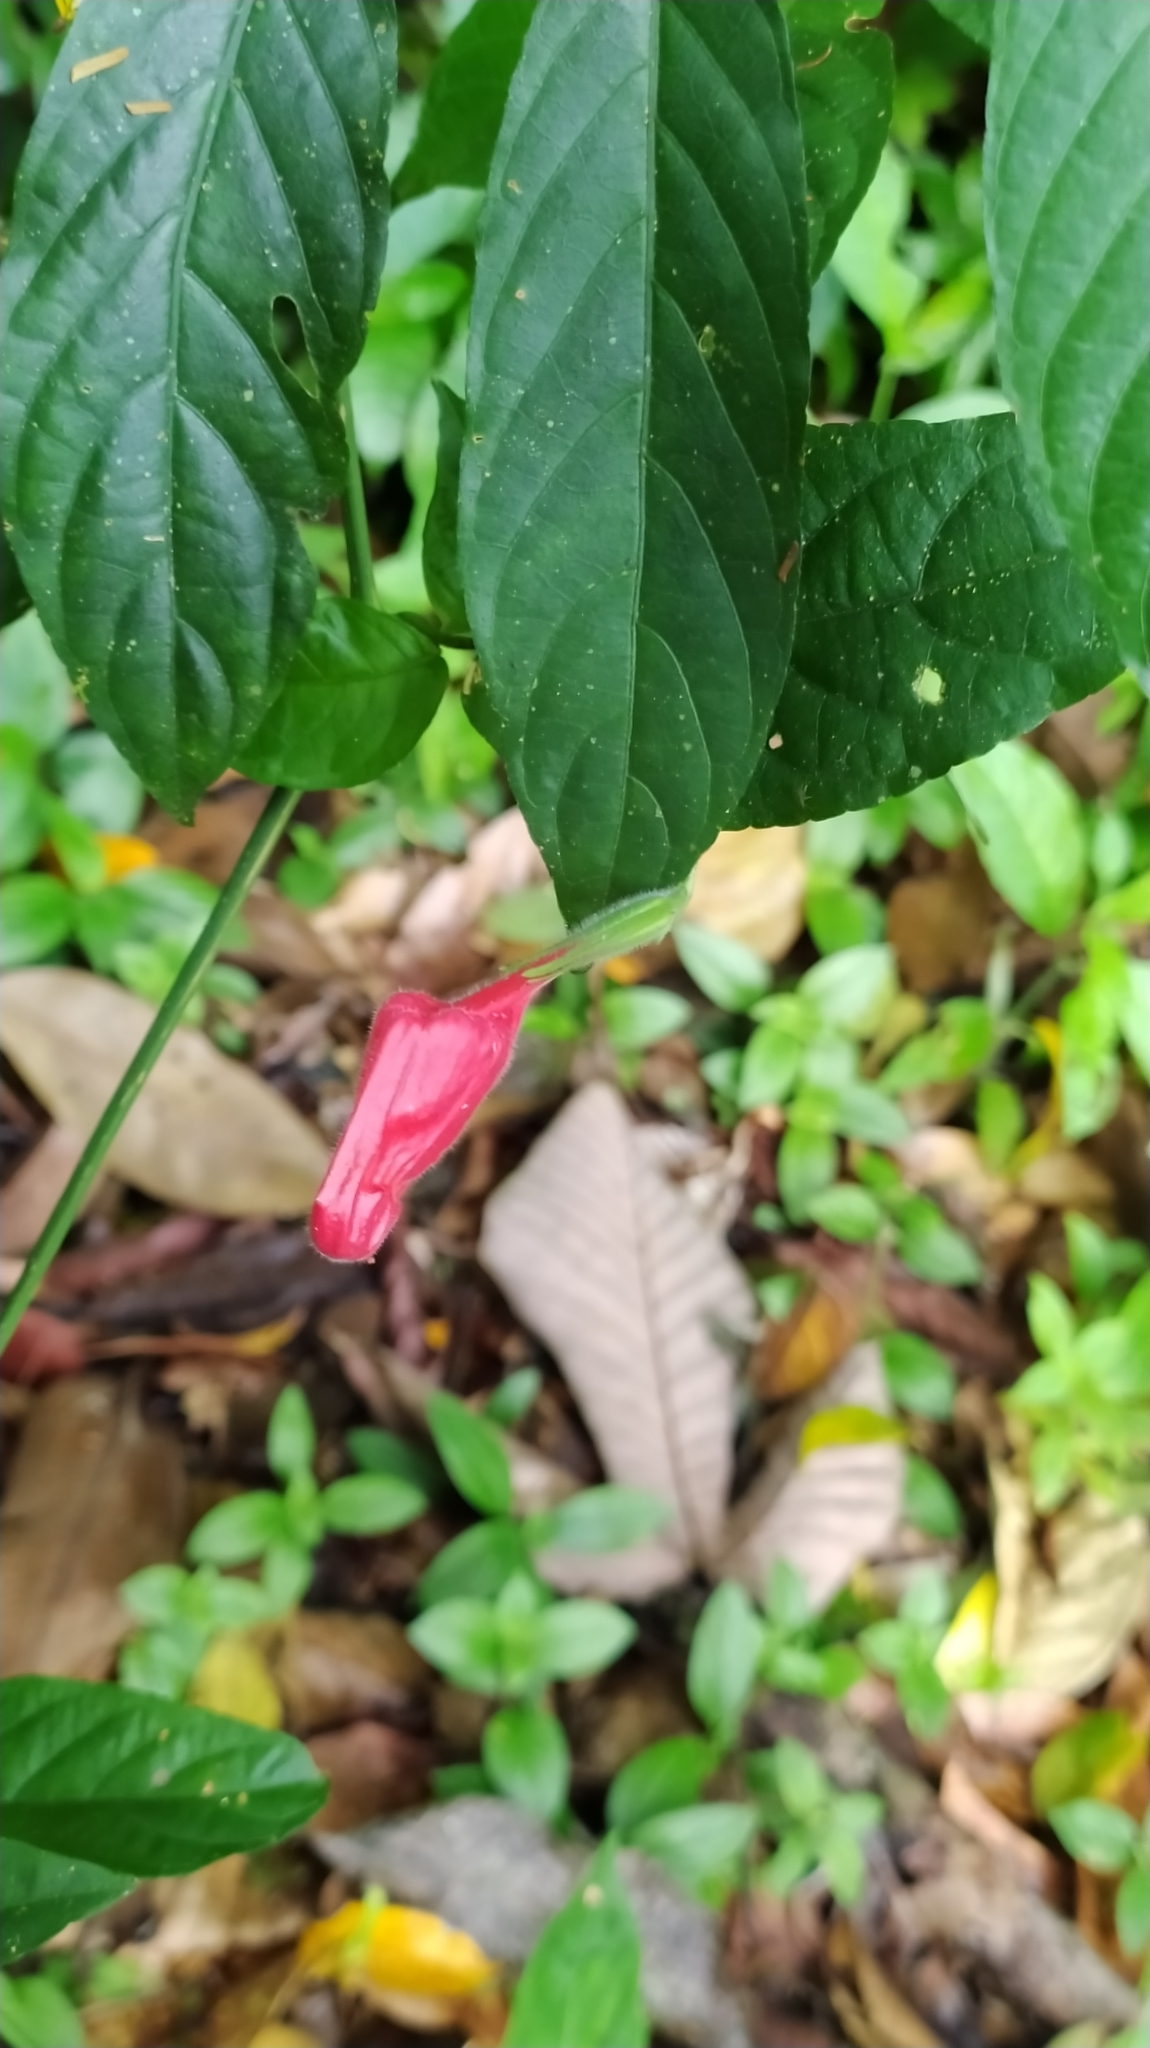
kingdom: Plantae
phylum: Tracheophyta
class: Magnoliopsida
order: Lamiales
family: Acanthaceae
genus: Ruellia
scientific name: Ruellia inflata
